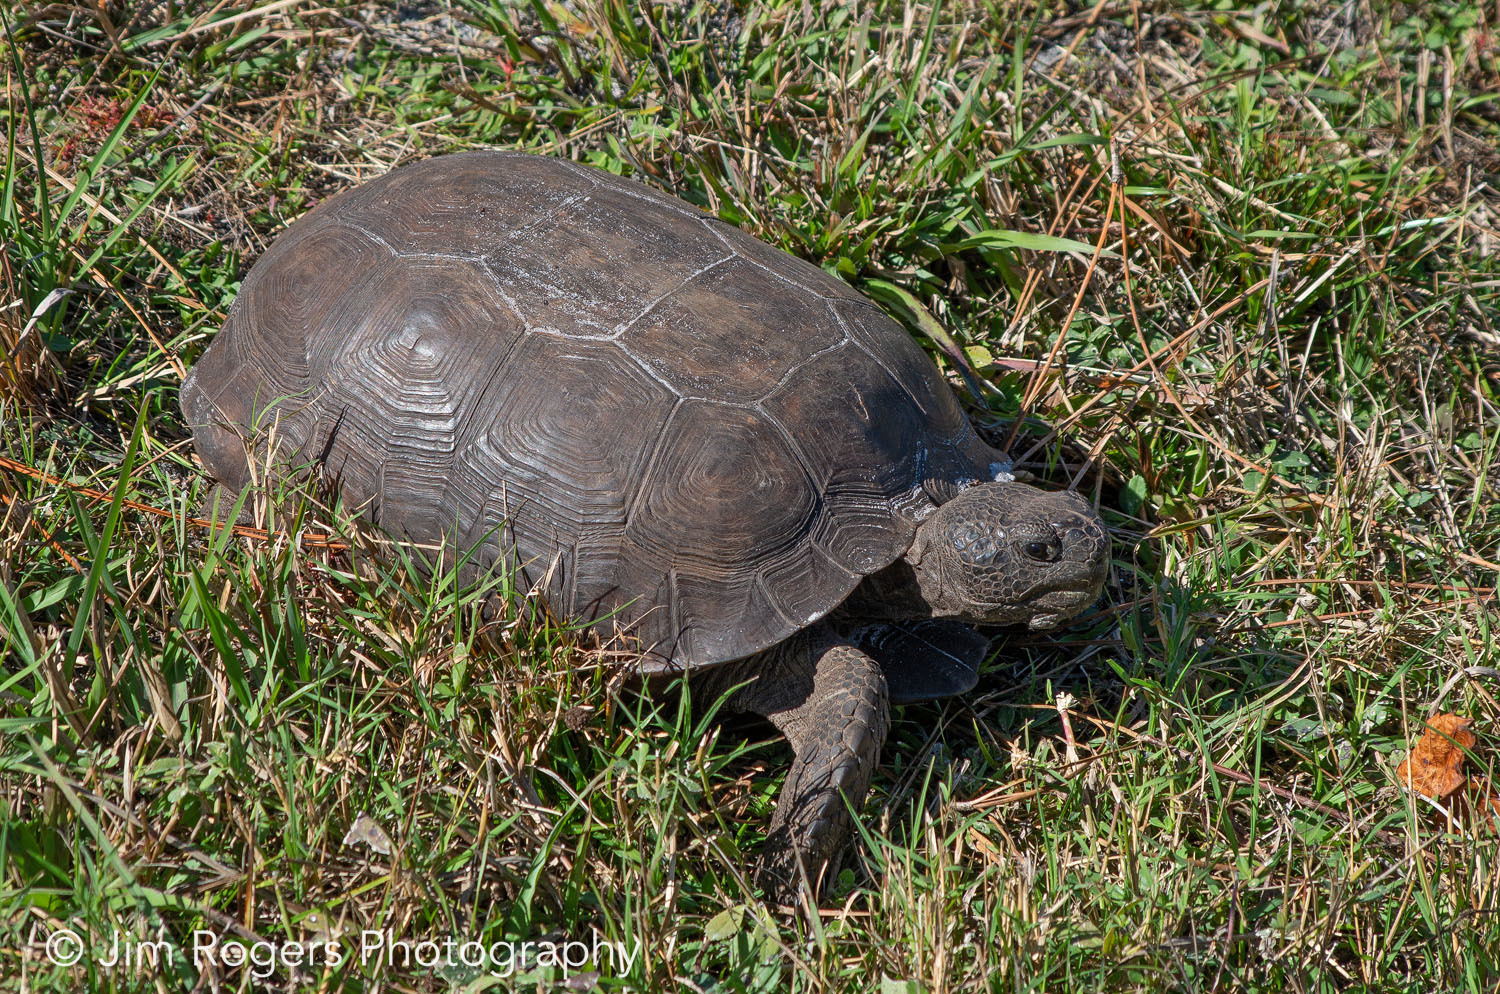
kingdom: Animalia
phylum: Chordata
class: Testudines
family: Testudinidae
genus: Gopherus
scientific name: Gopherus polyphemus
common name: Florida gopher tortoise
